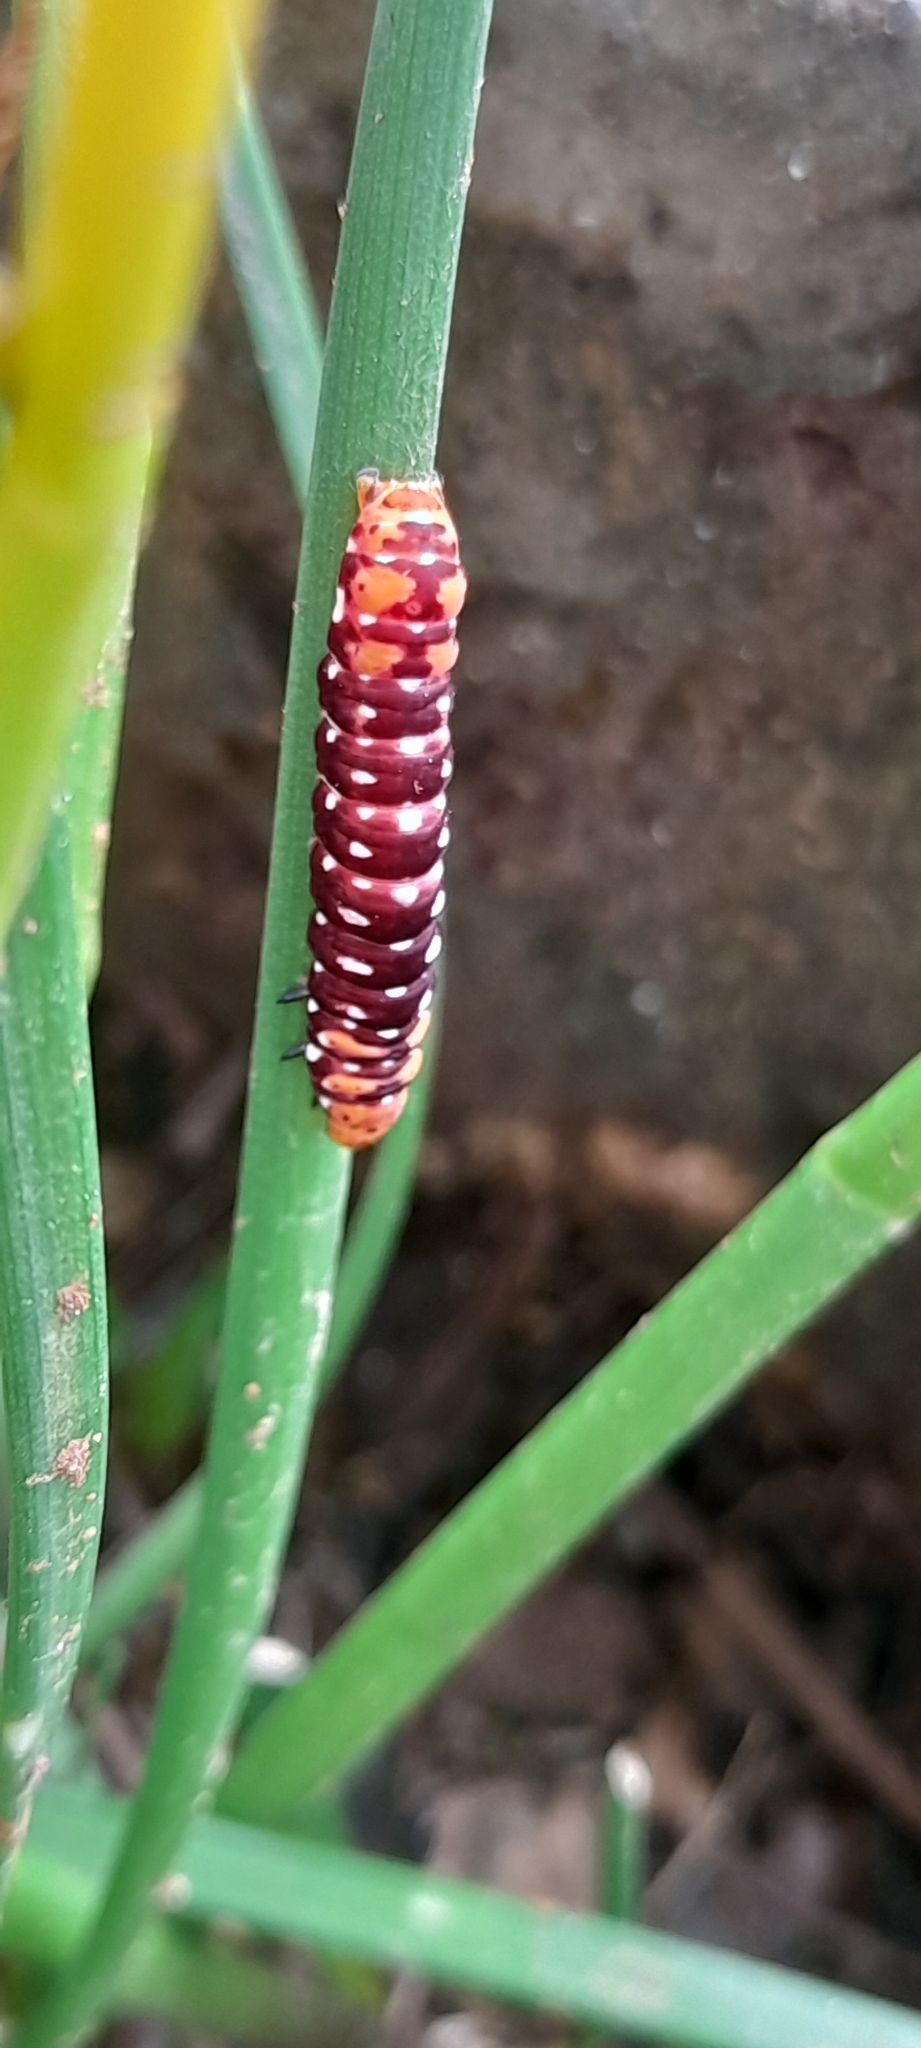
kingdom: Animalia
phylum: Arthropoda
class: Insecta
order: Lepidoptera
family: Noctuidae
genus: Polytela
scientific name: Polytela gloriosae
